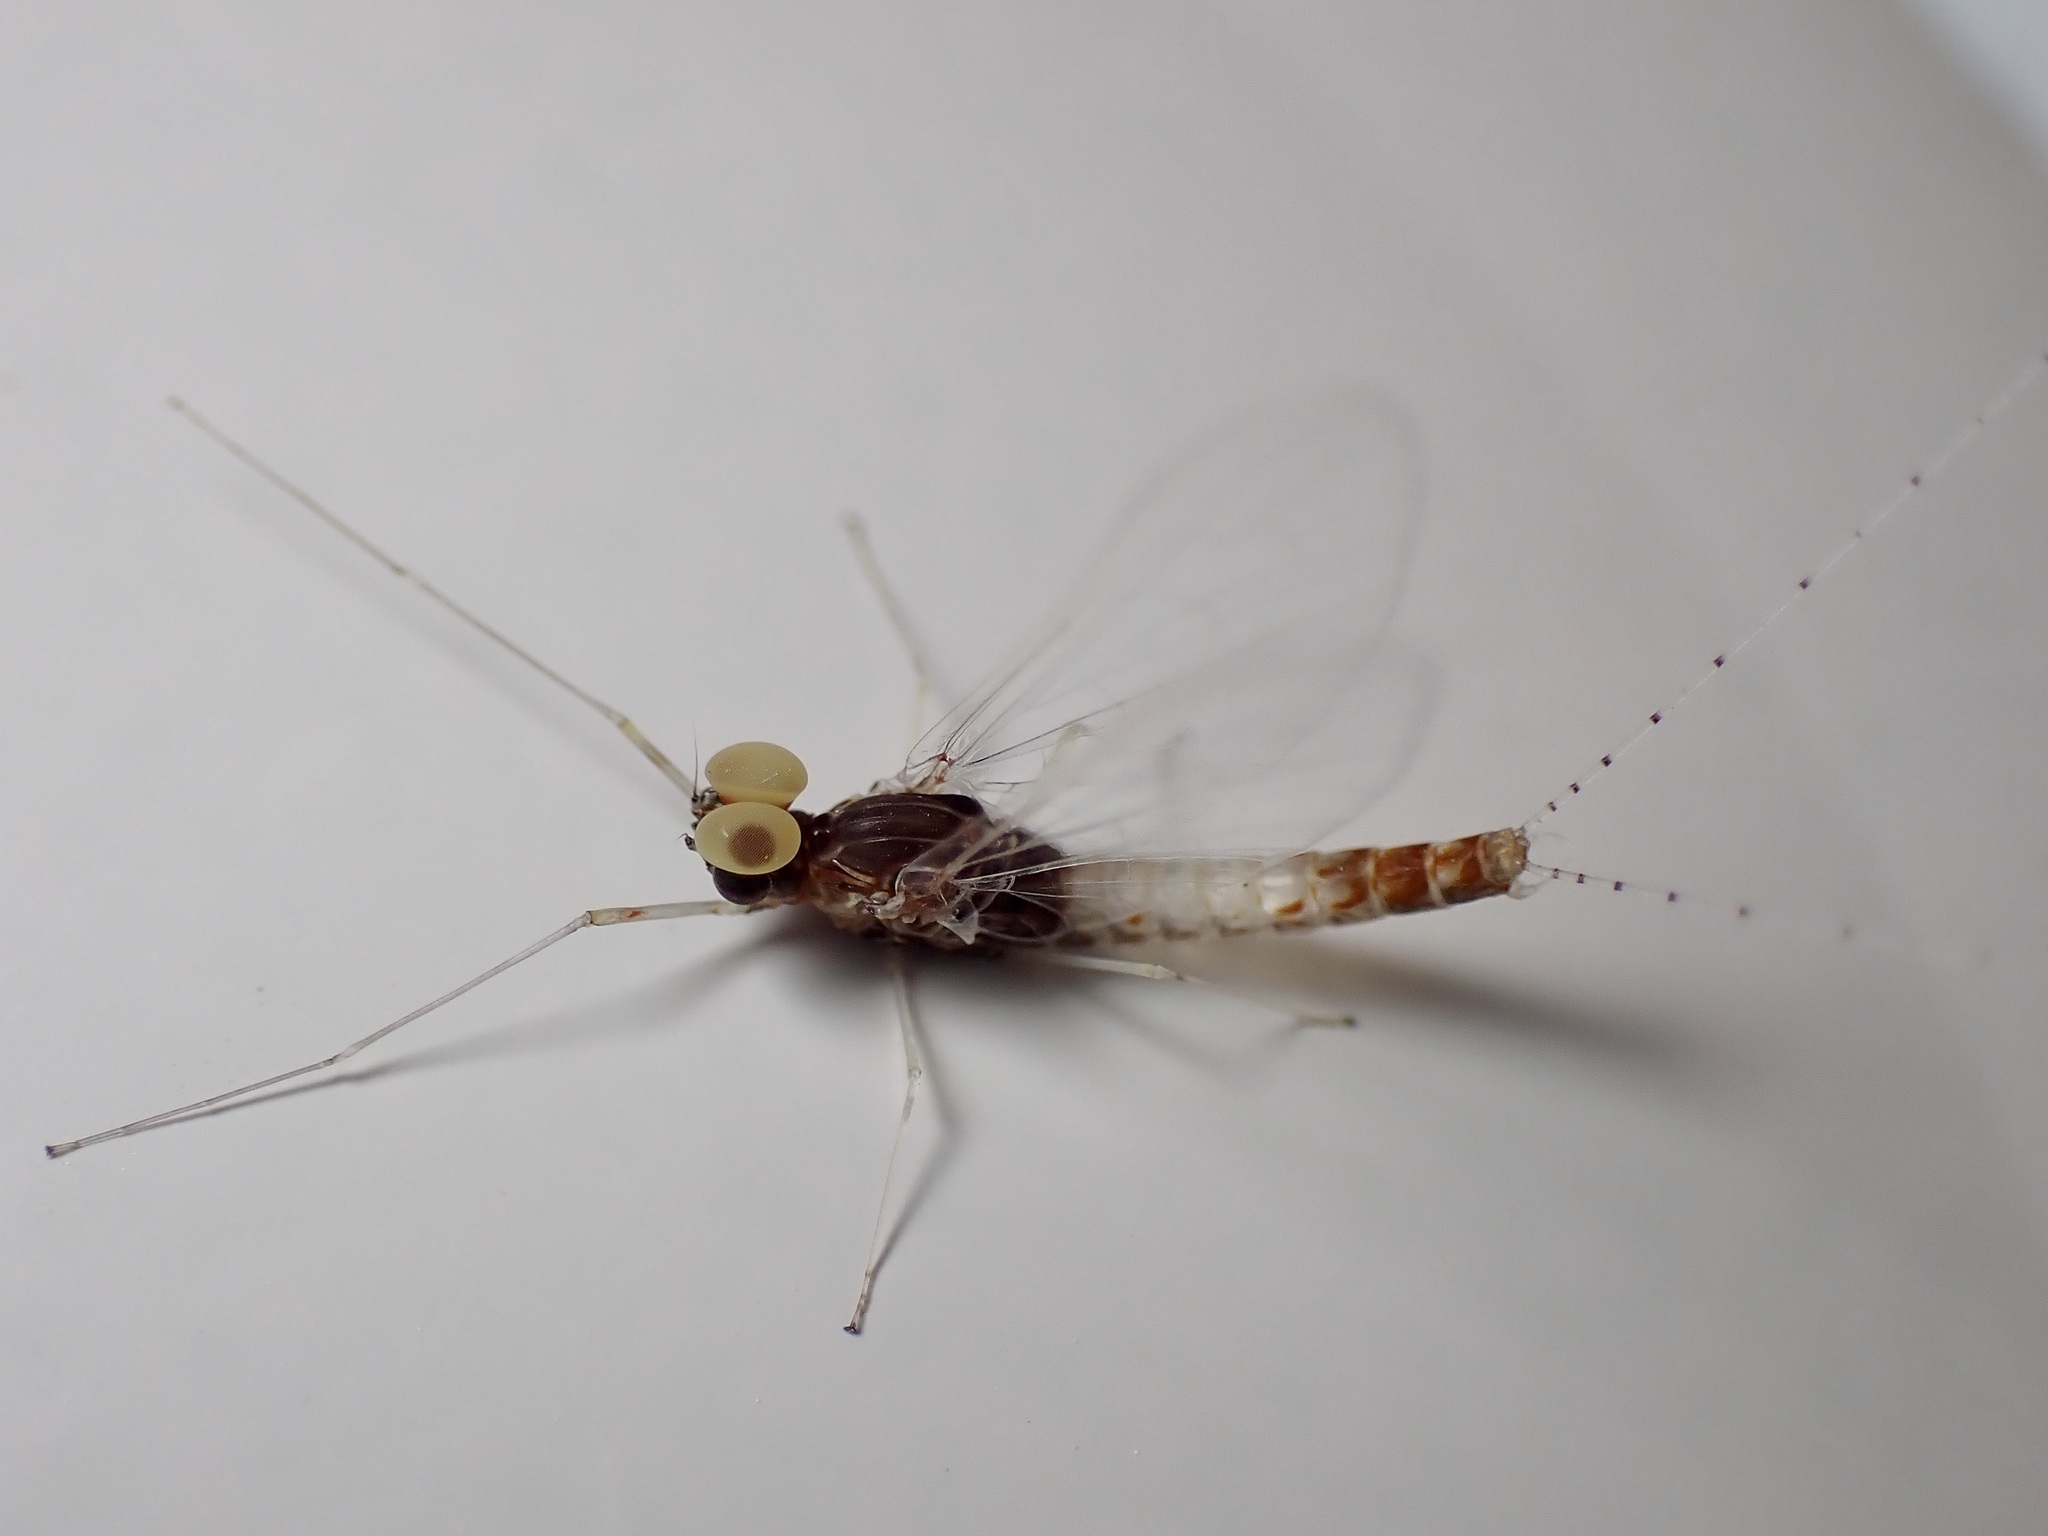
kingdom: Animalia
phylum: Arthropoda
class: Insecta
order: Ephemeroptera
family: Baetidae
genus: Baetis
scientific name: Baetis fuscatus
